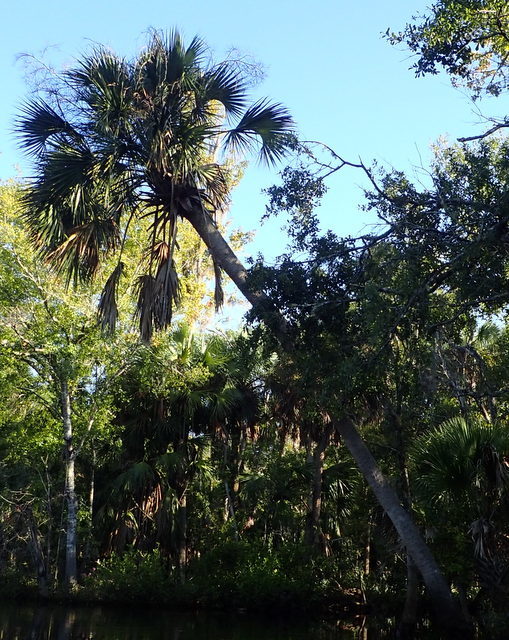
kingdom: Plantae
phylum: Tracheophyta
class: Liliopsida
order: Arecales
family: Arecaceae
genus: Sabal
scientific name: Sabal palmetto
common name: Blue palmetto
